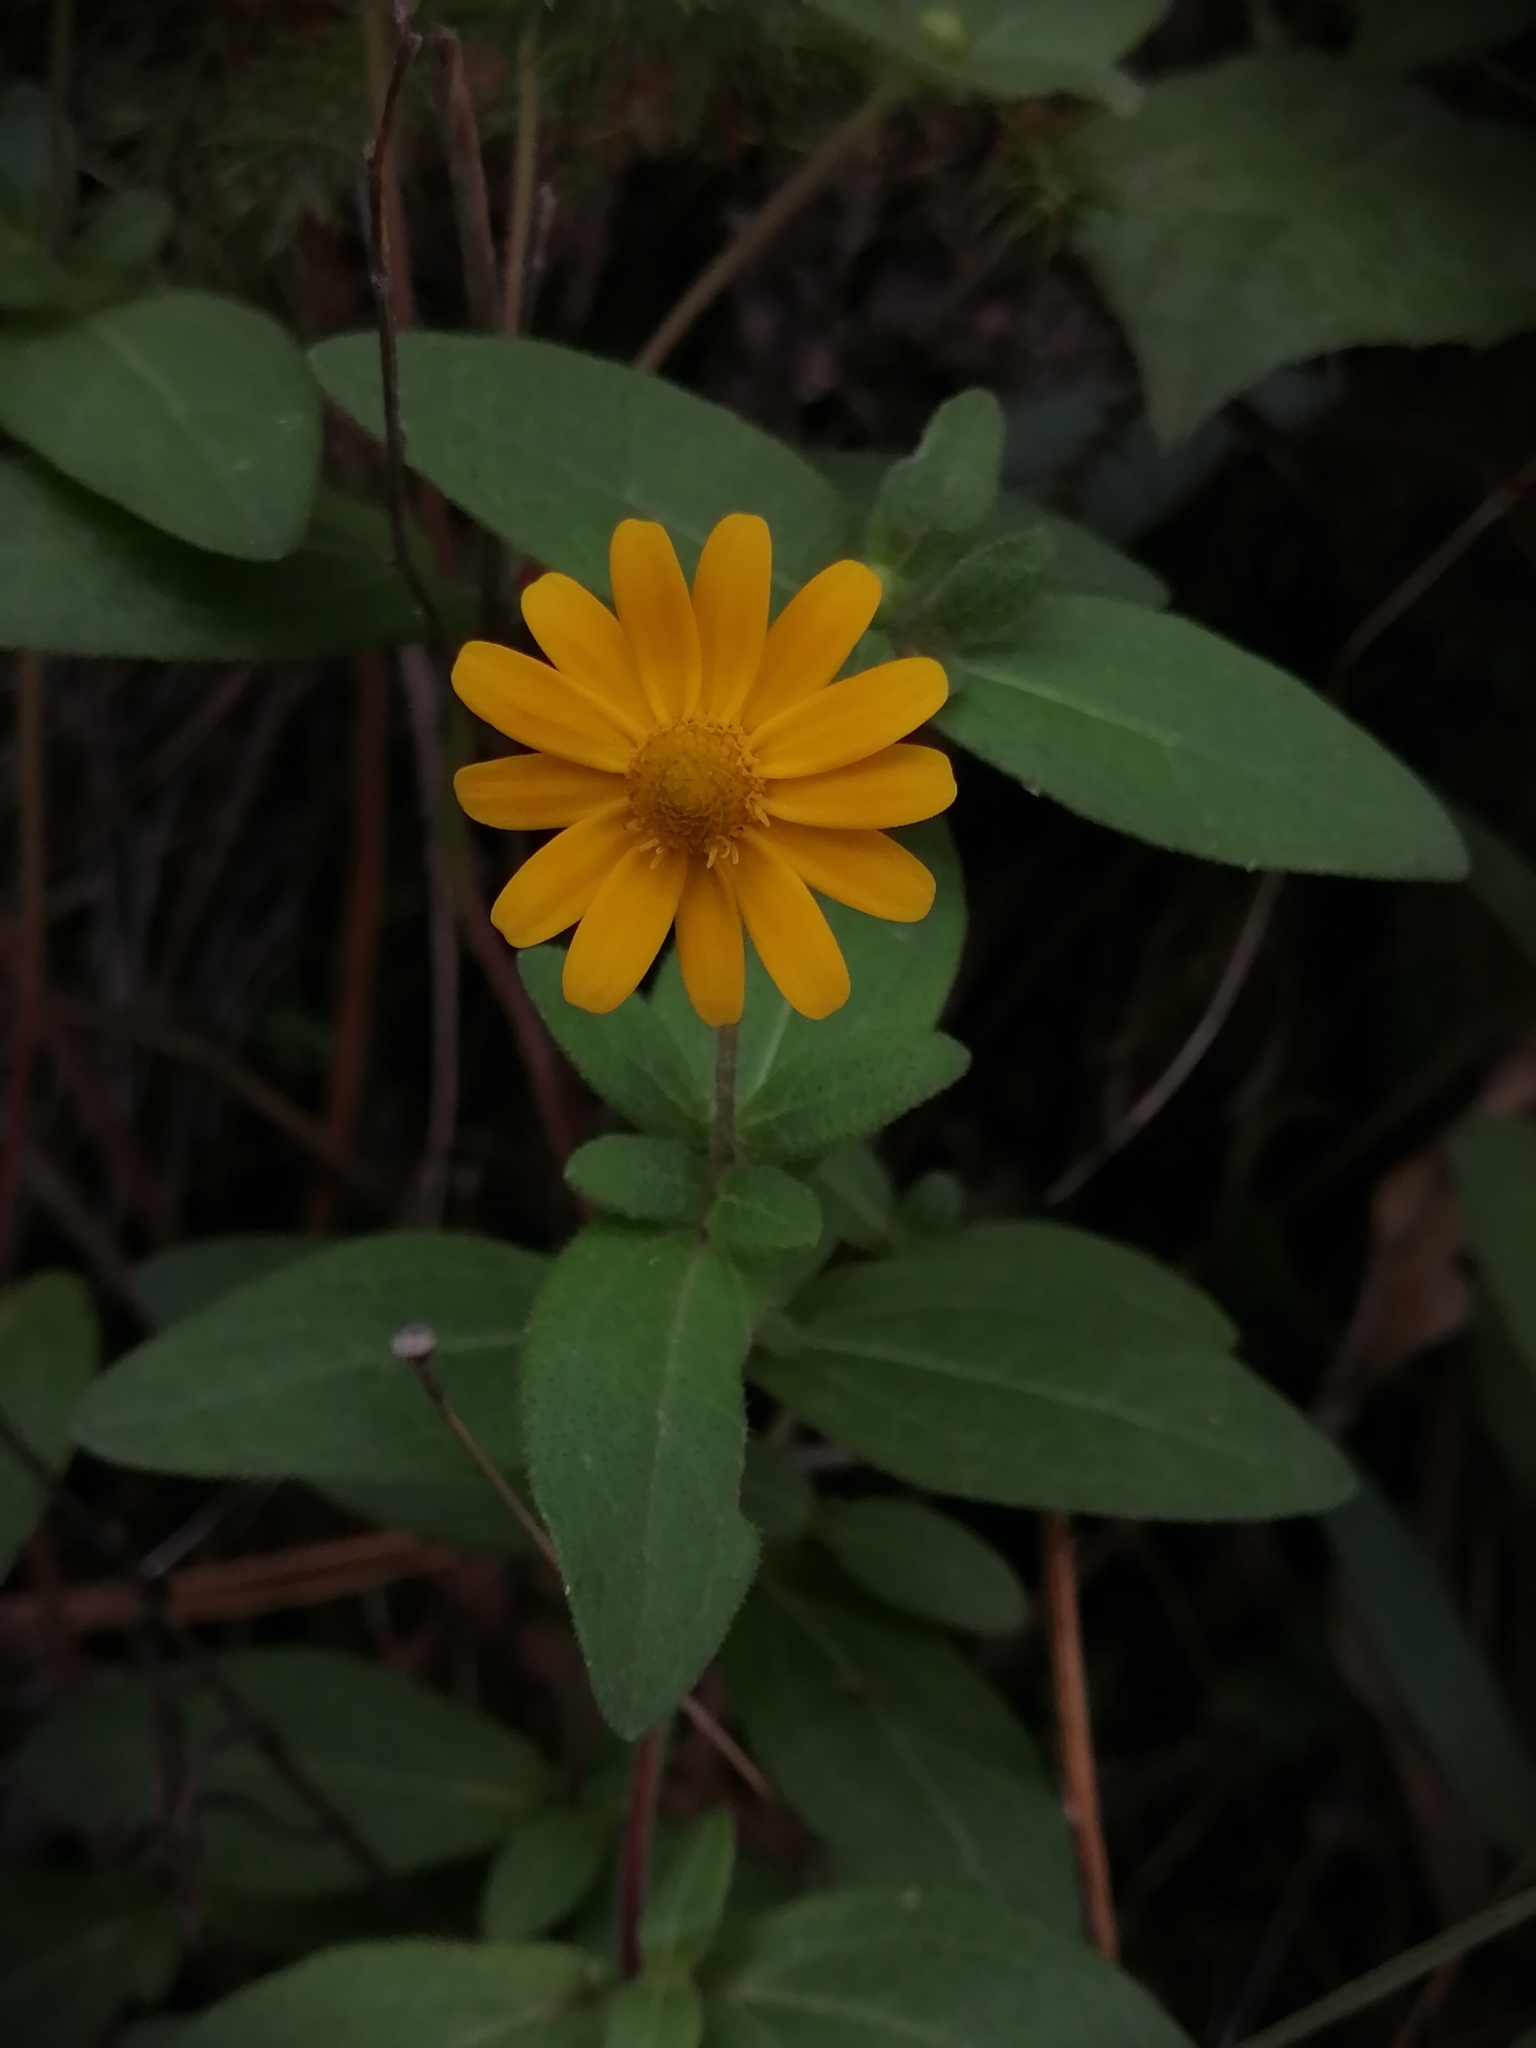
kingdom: Plantae
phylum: Tracheophyta
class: Magnoliopsida
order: Asterales
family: Asteraceae
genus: Melampodium
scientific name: Melampodium montanum
